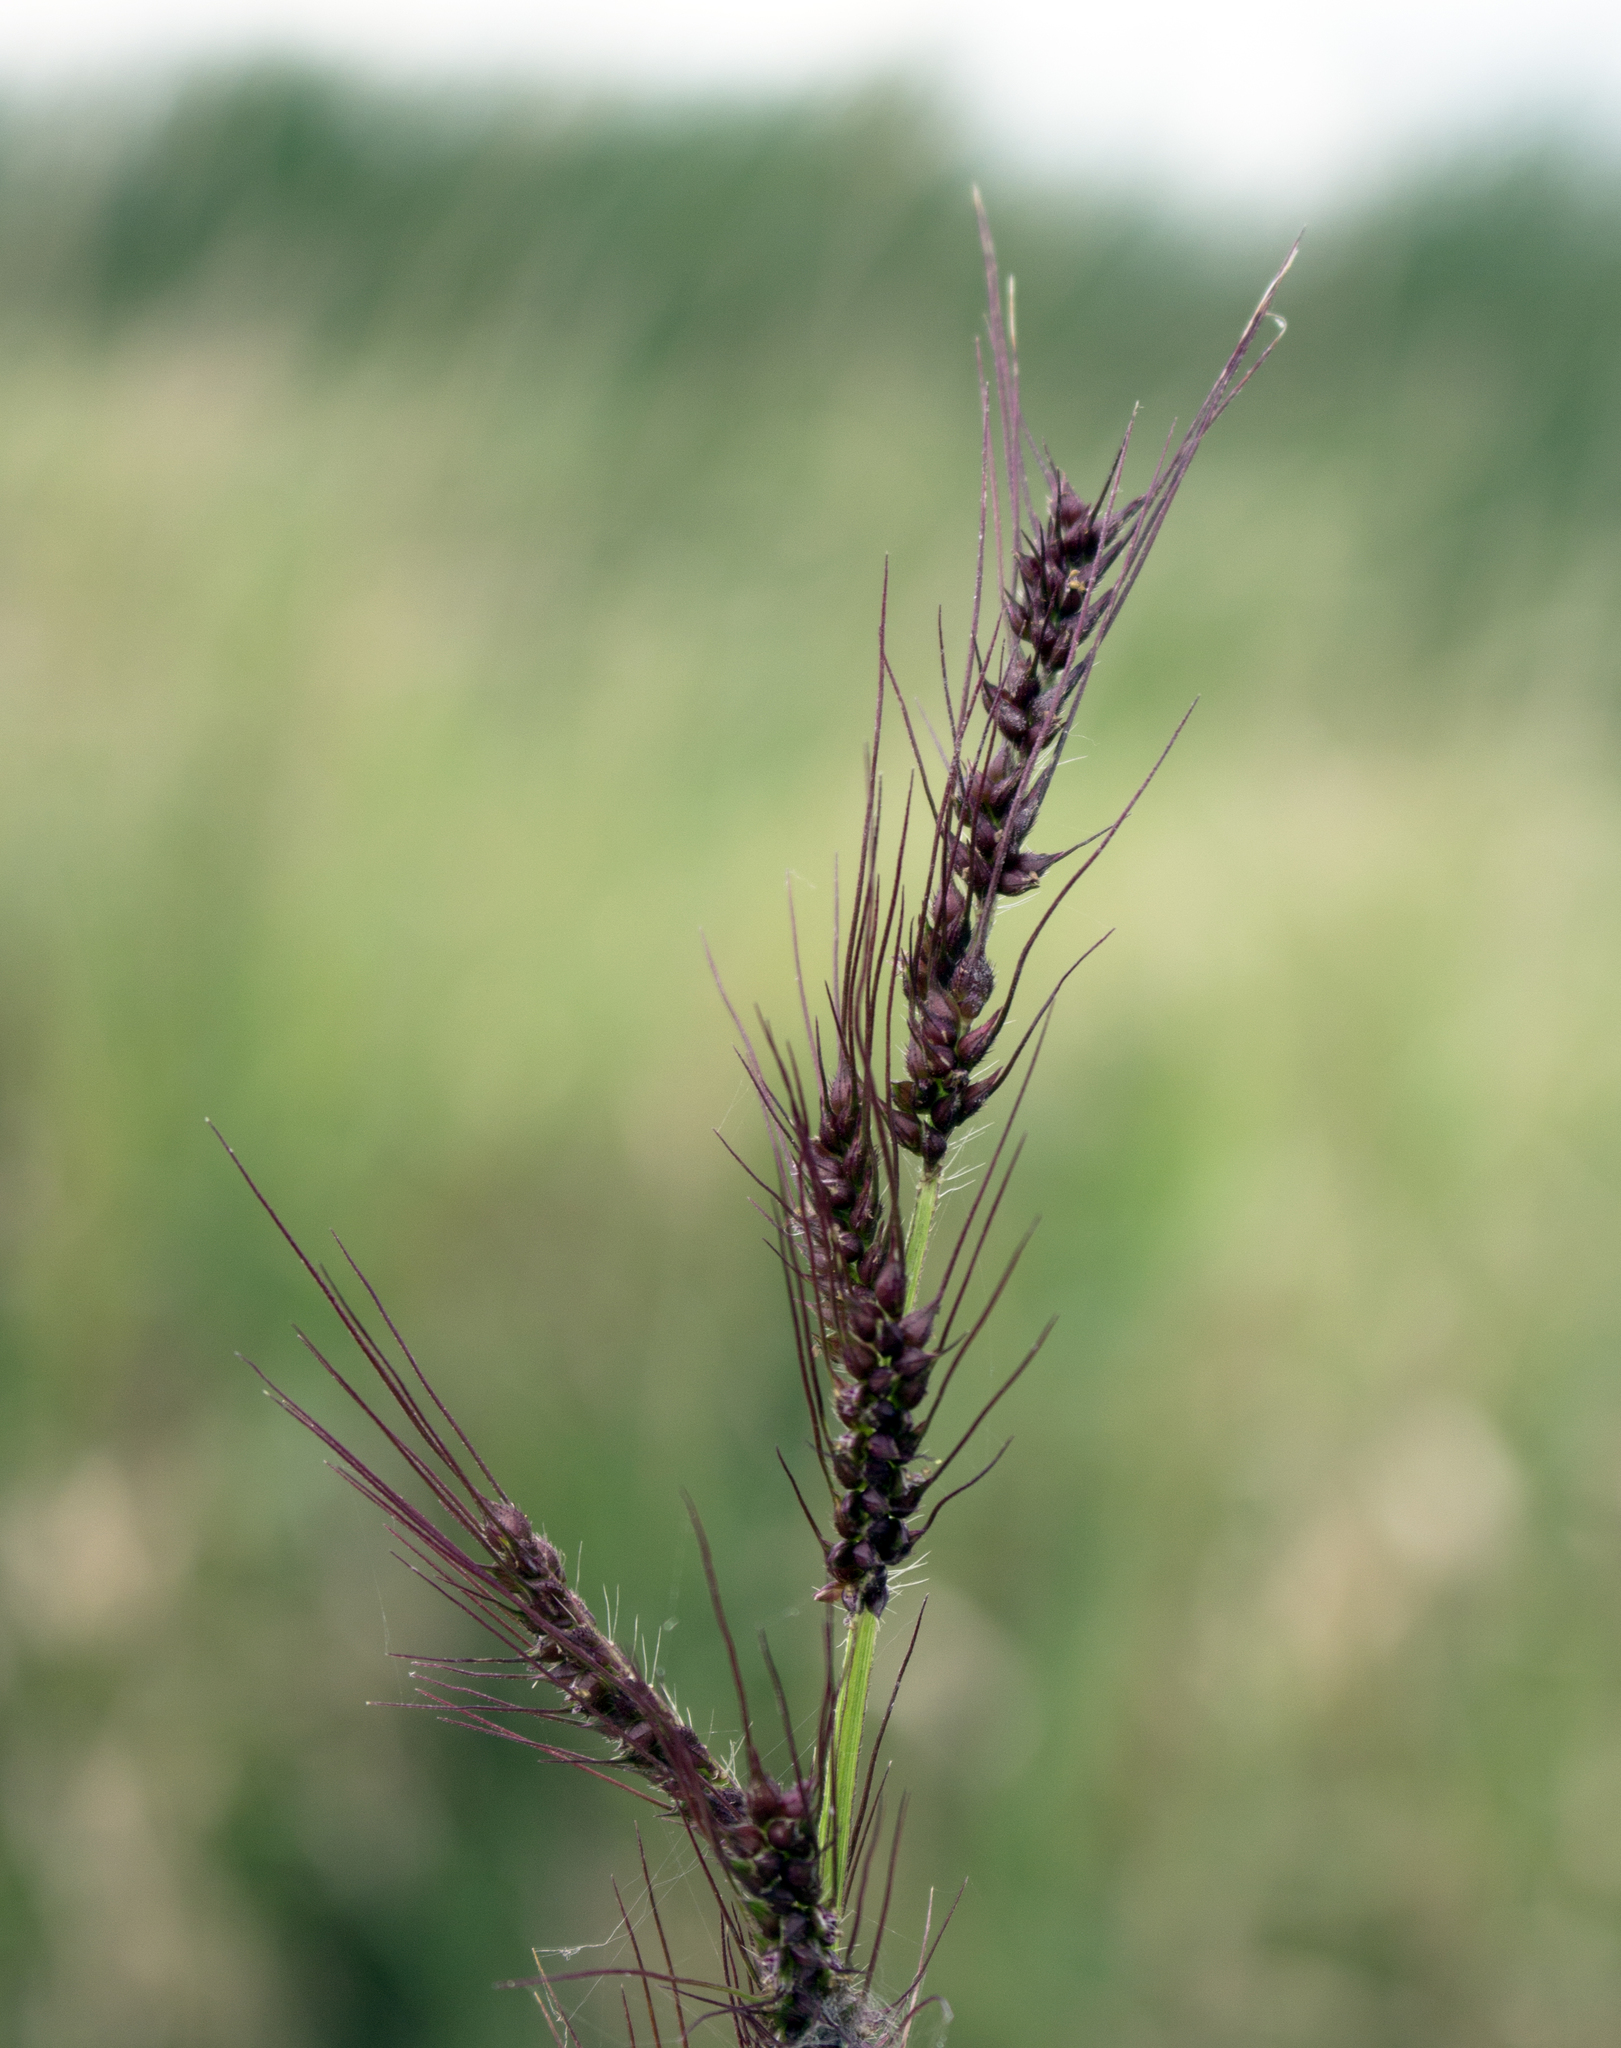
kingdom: Plantae
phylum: Tracheophyta
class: Liliopsida
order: Poales
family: Poaceae
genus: Echinochloa
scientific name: Echinochloa muricata
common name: American barnyard grass
